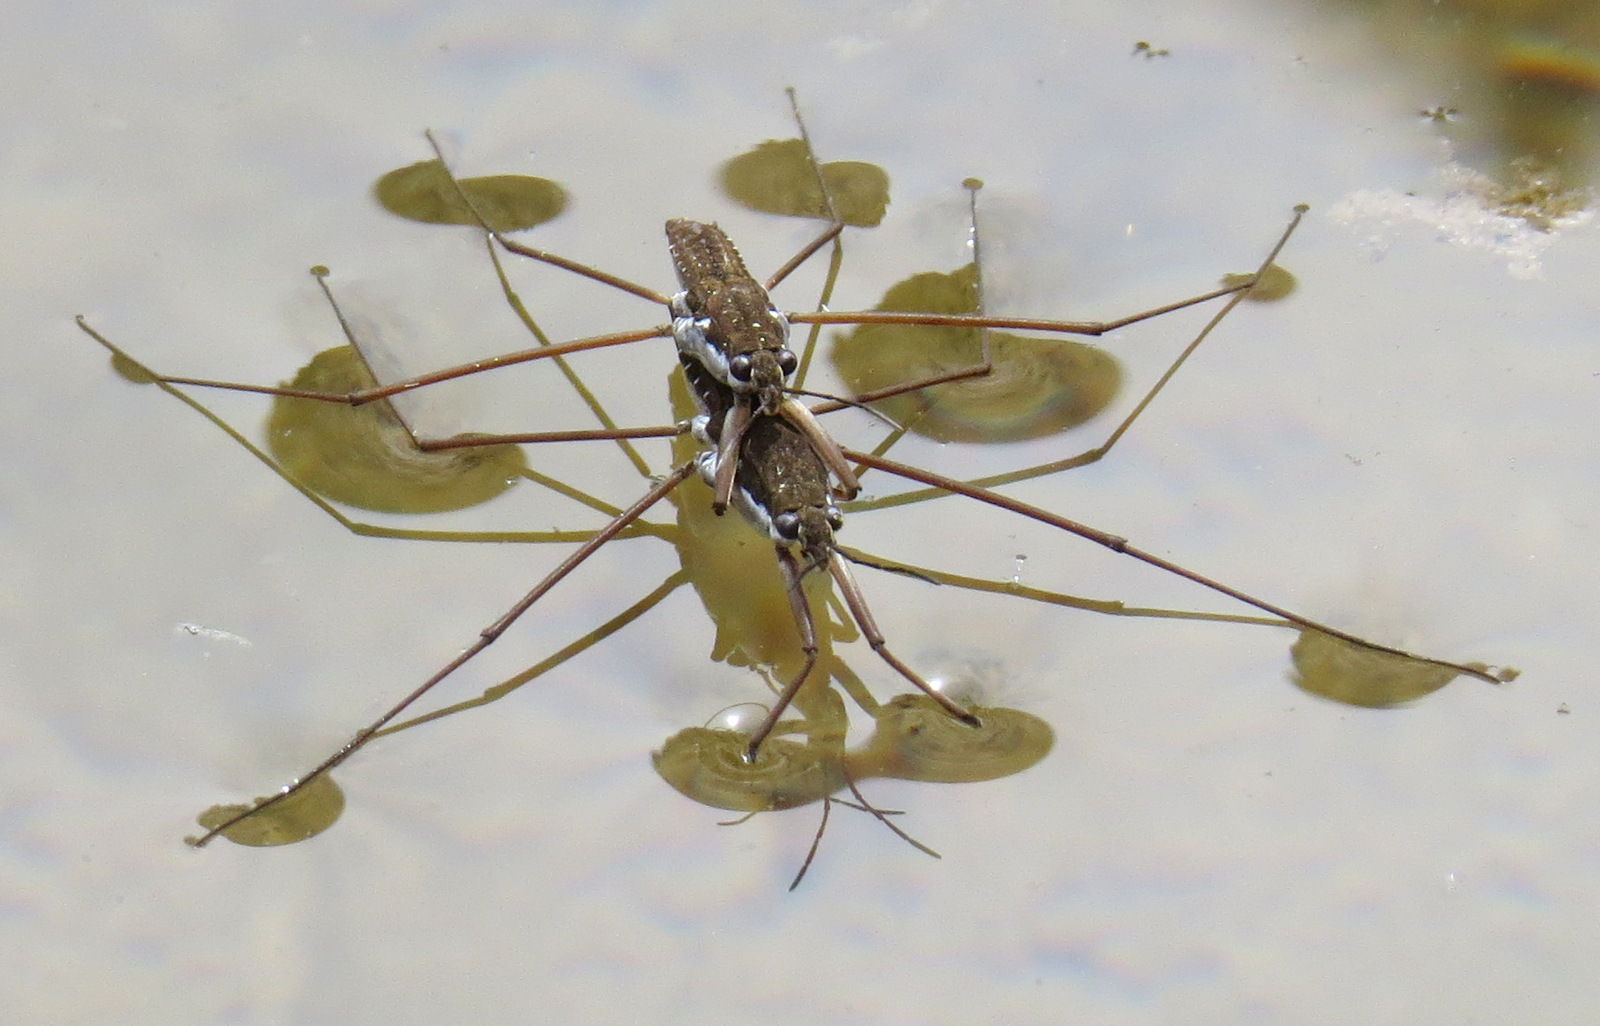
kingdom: Animalia
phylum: Arthropoda
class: Insecta
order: Hemiptera
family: Gerridae
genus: Aquarius
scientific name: Aquarius remigis
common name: Common water strider
